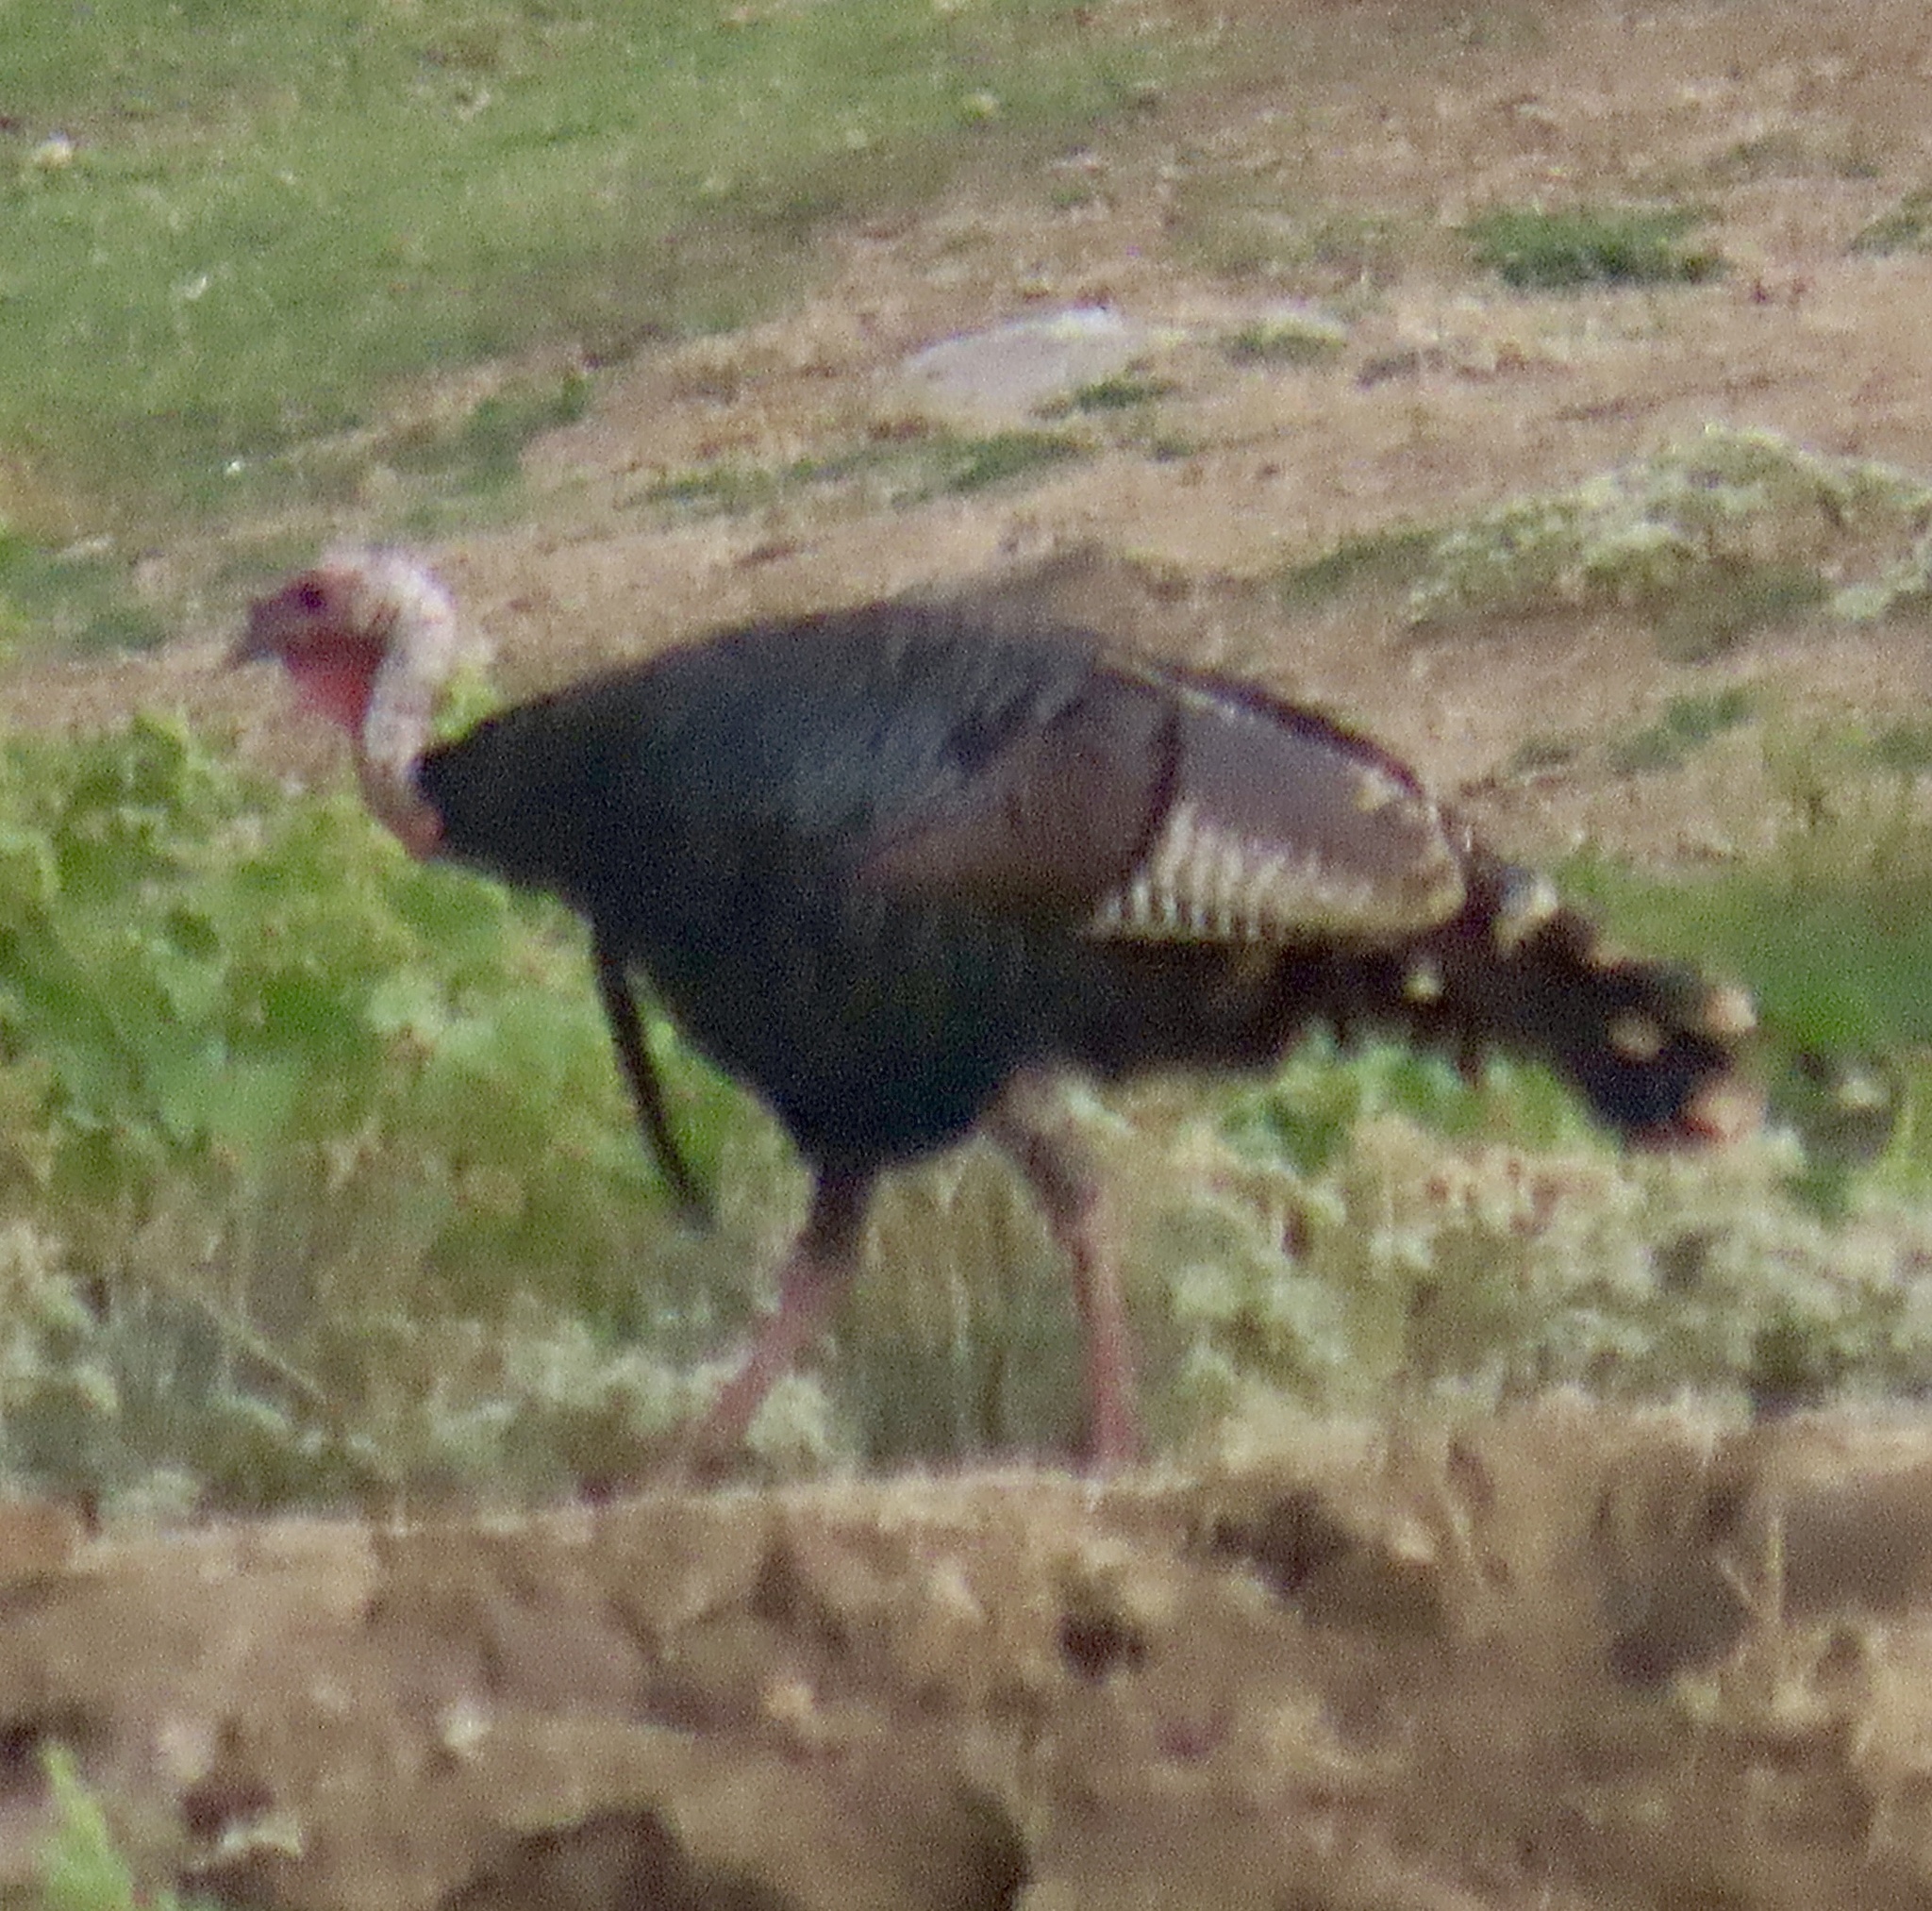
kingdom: Animalia
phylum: Chordata
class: Aves
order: Galliformes
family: Phasianidae
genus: Meleagris
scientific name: Meleagris gallopavo
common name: Wild turkey
